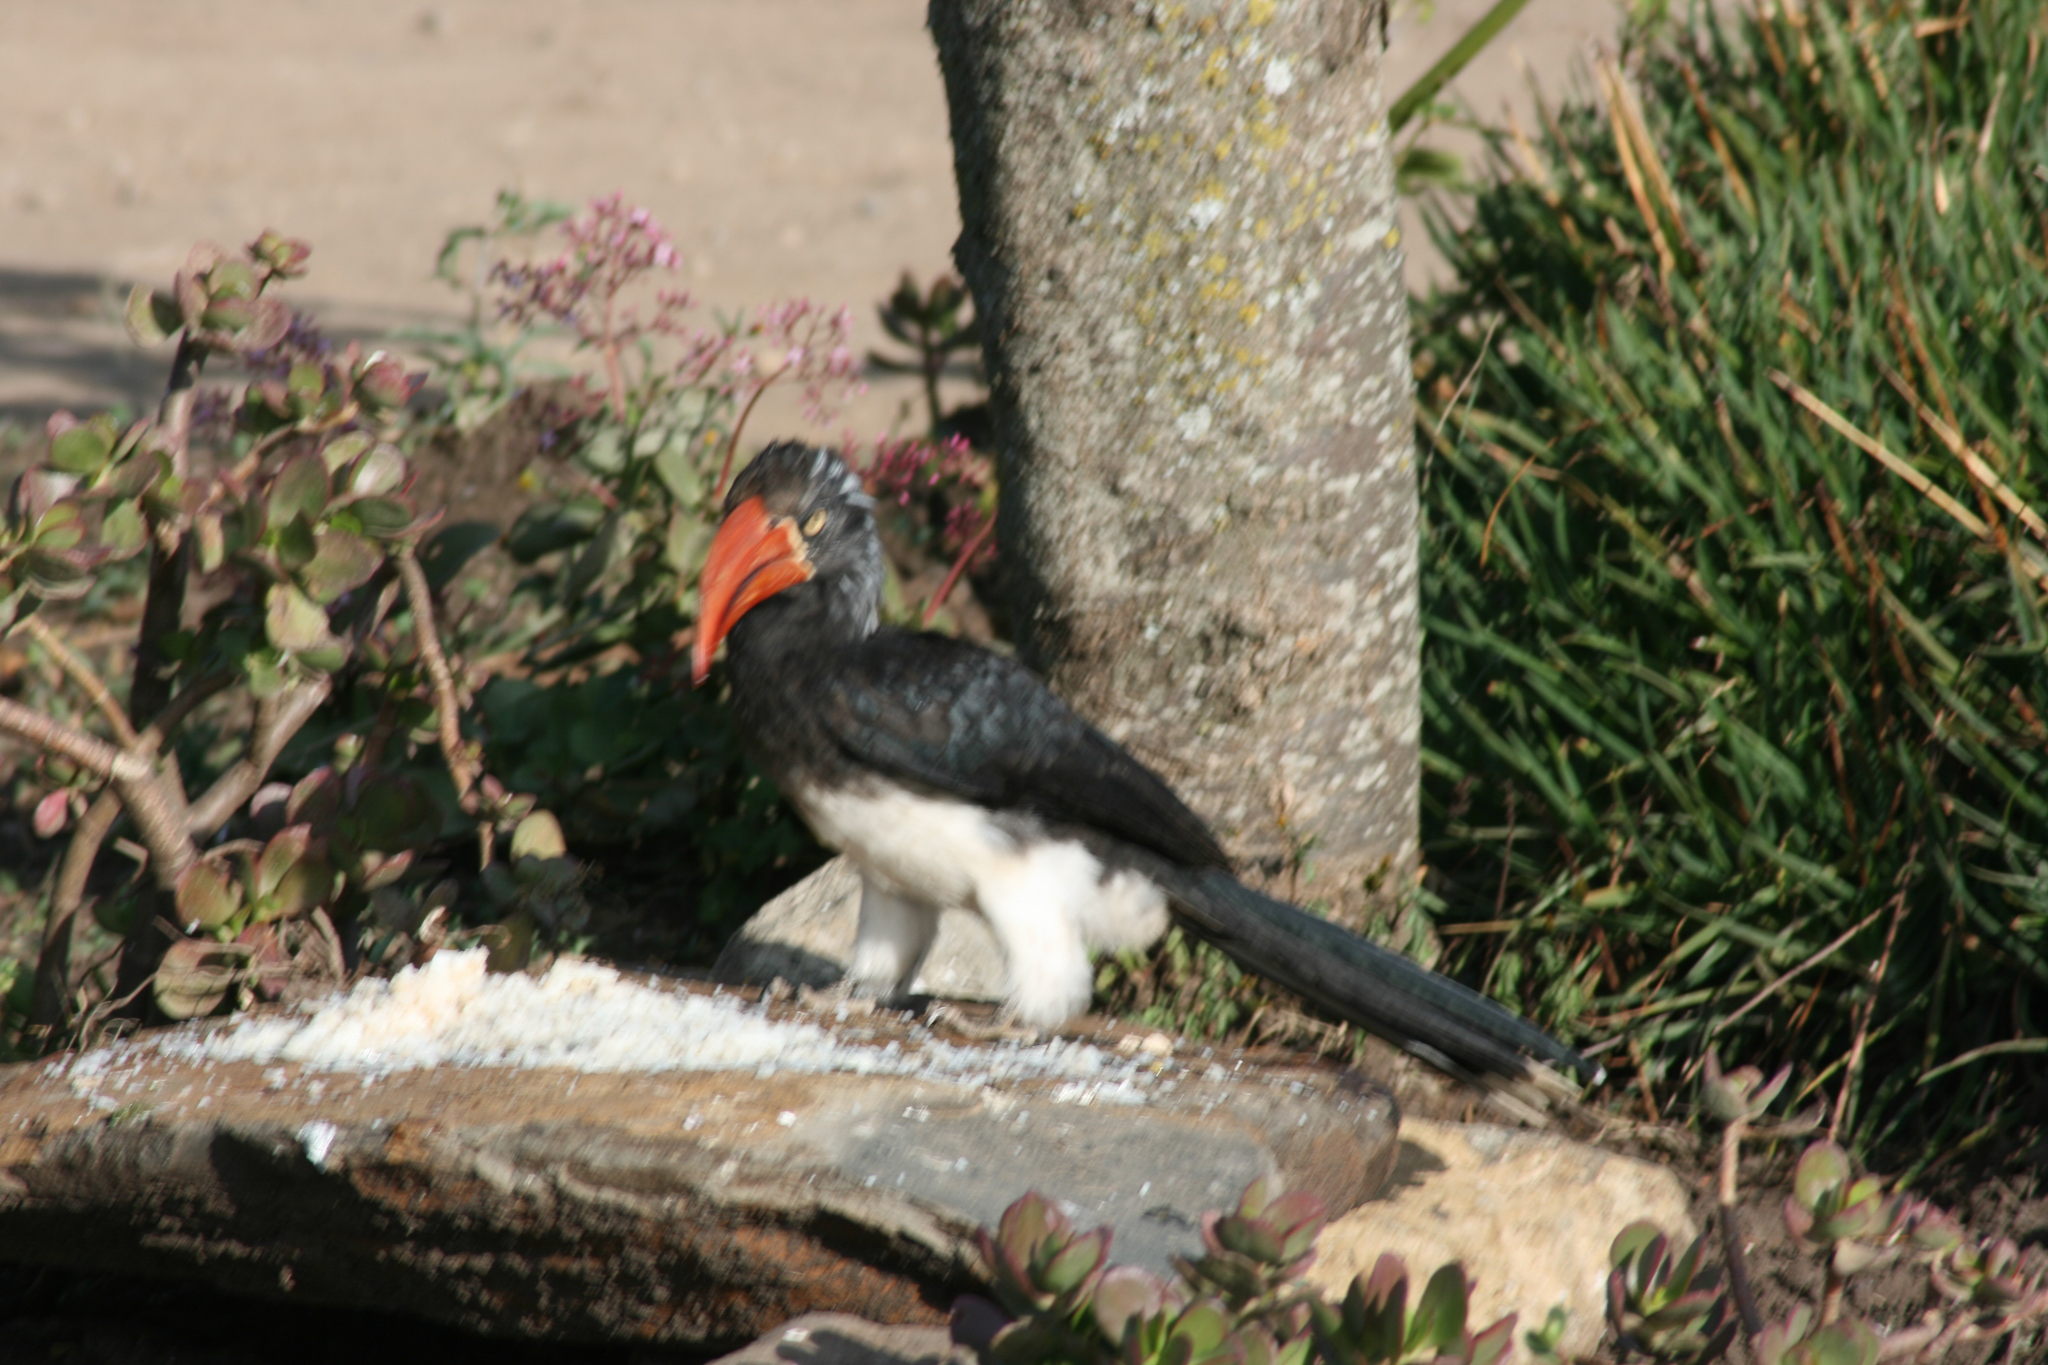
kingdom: Animalia
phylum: Chordata
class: Aves
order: Bucerotiformes
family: Bucerotidae
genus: Lophoceros
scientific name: Lophoceros alboterminatus
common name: Crowned hornbill
